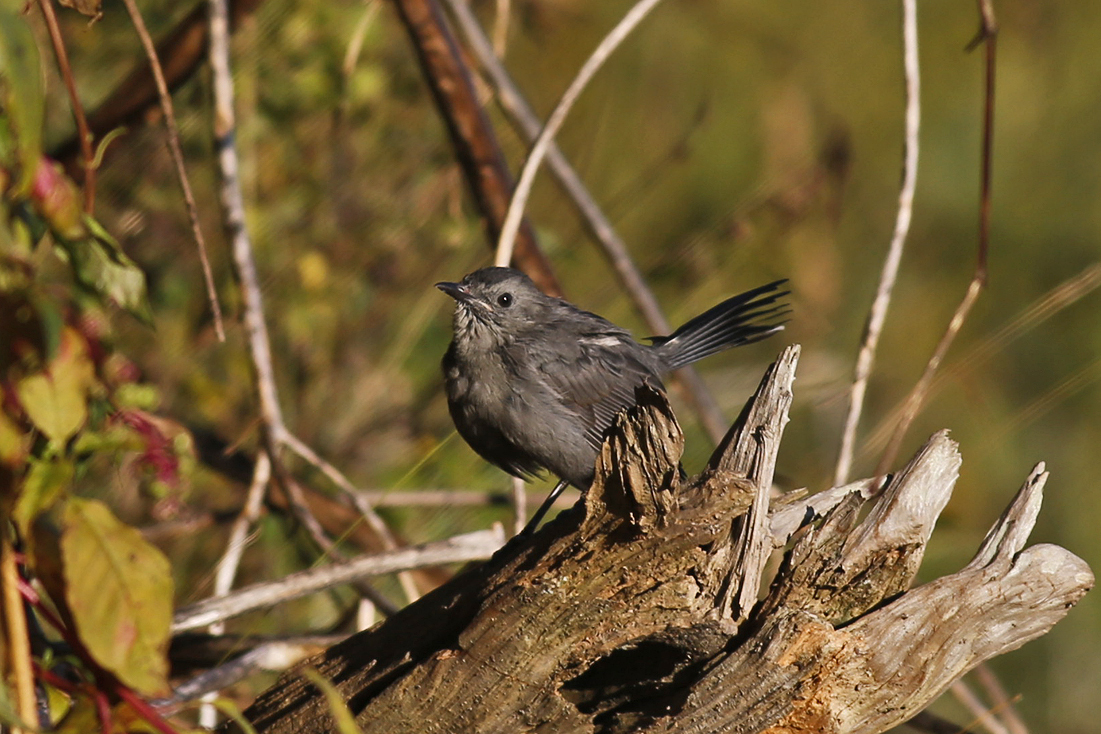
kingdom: Animalia
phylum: Chordata
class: Aves
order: Passeriformes
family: Mimidae
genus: Dumetella
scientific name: Dumetella carolinensis
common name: Gray catbird
